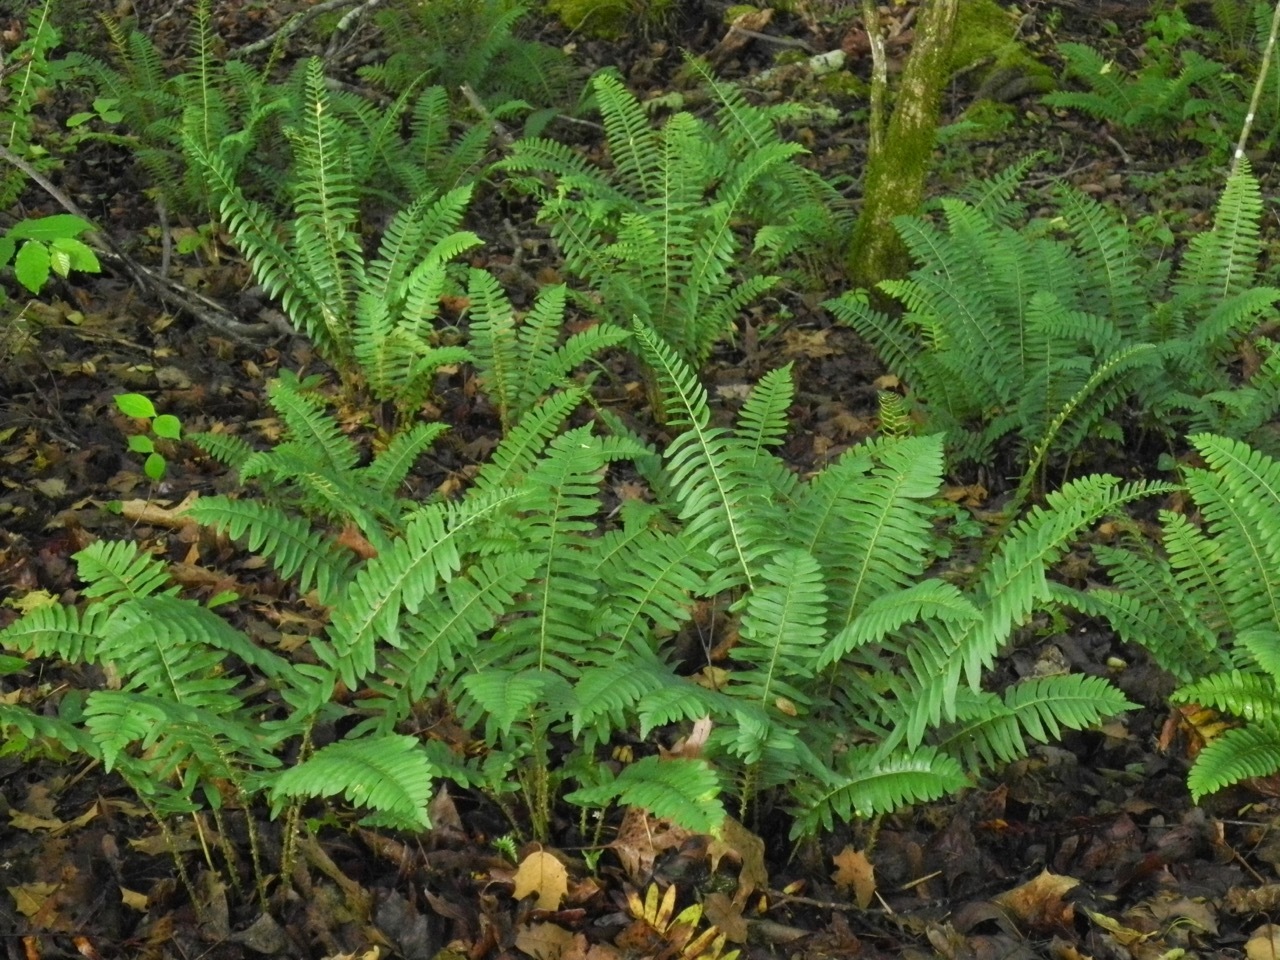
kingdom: Plantae
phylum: Tracheophyta
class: Polypodiopsida
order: Polypodiales
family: Dryopteridaceae
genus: Polystichum
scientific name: Polystichum acrostichoides
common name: Christmas fern
